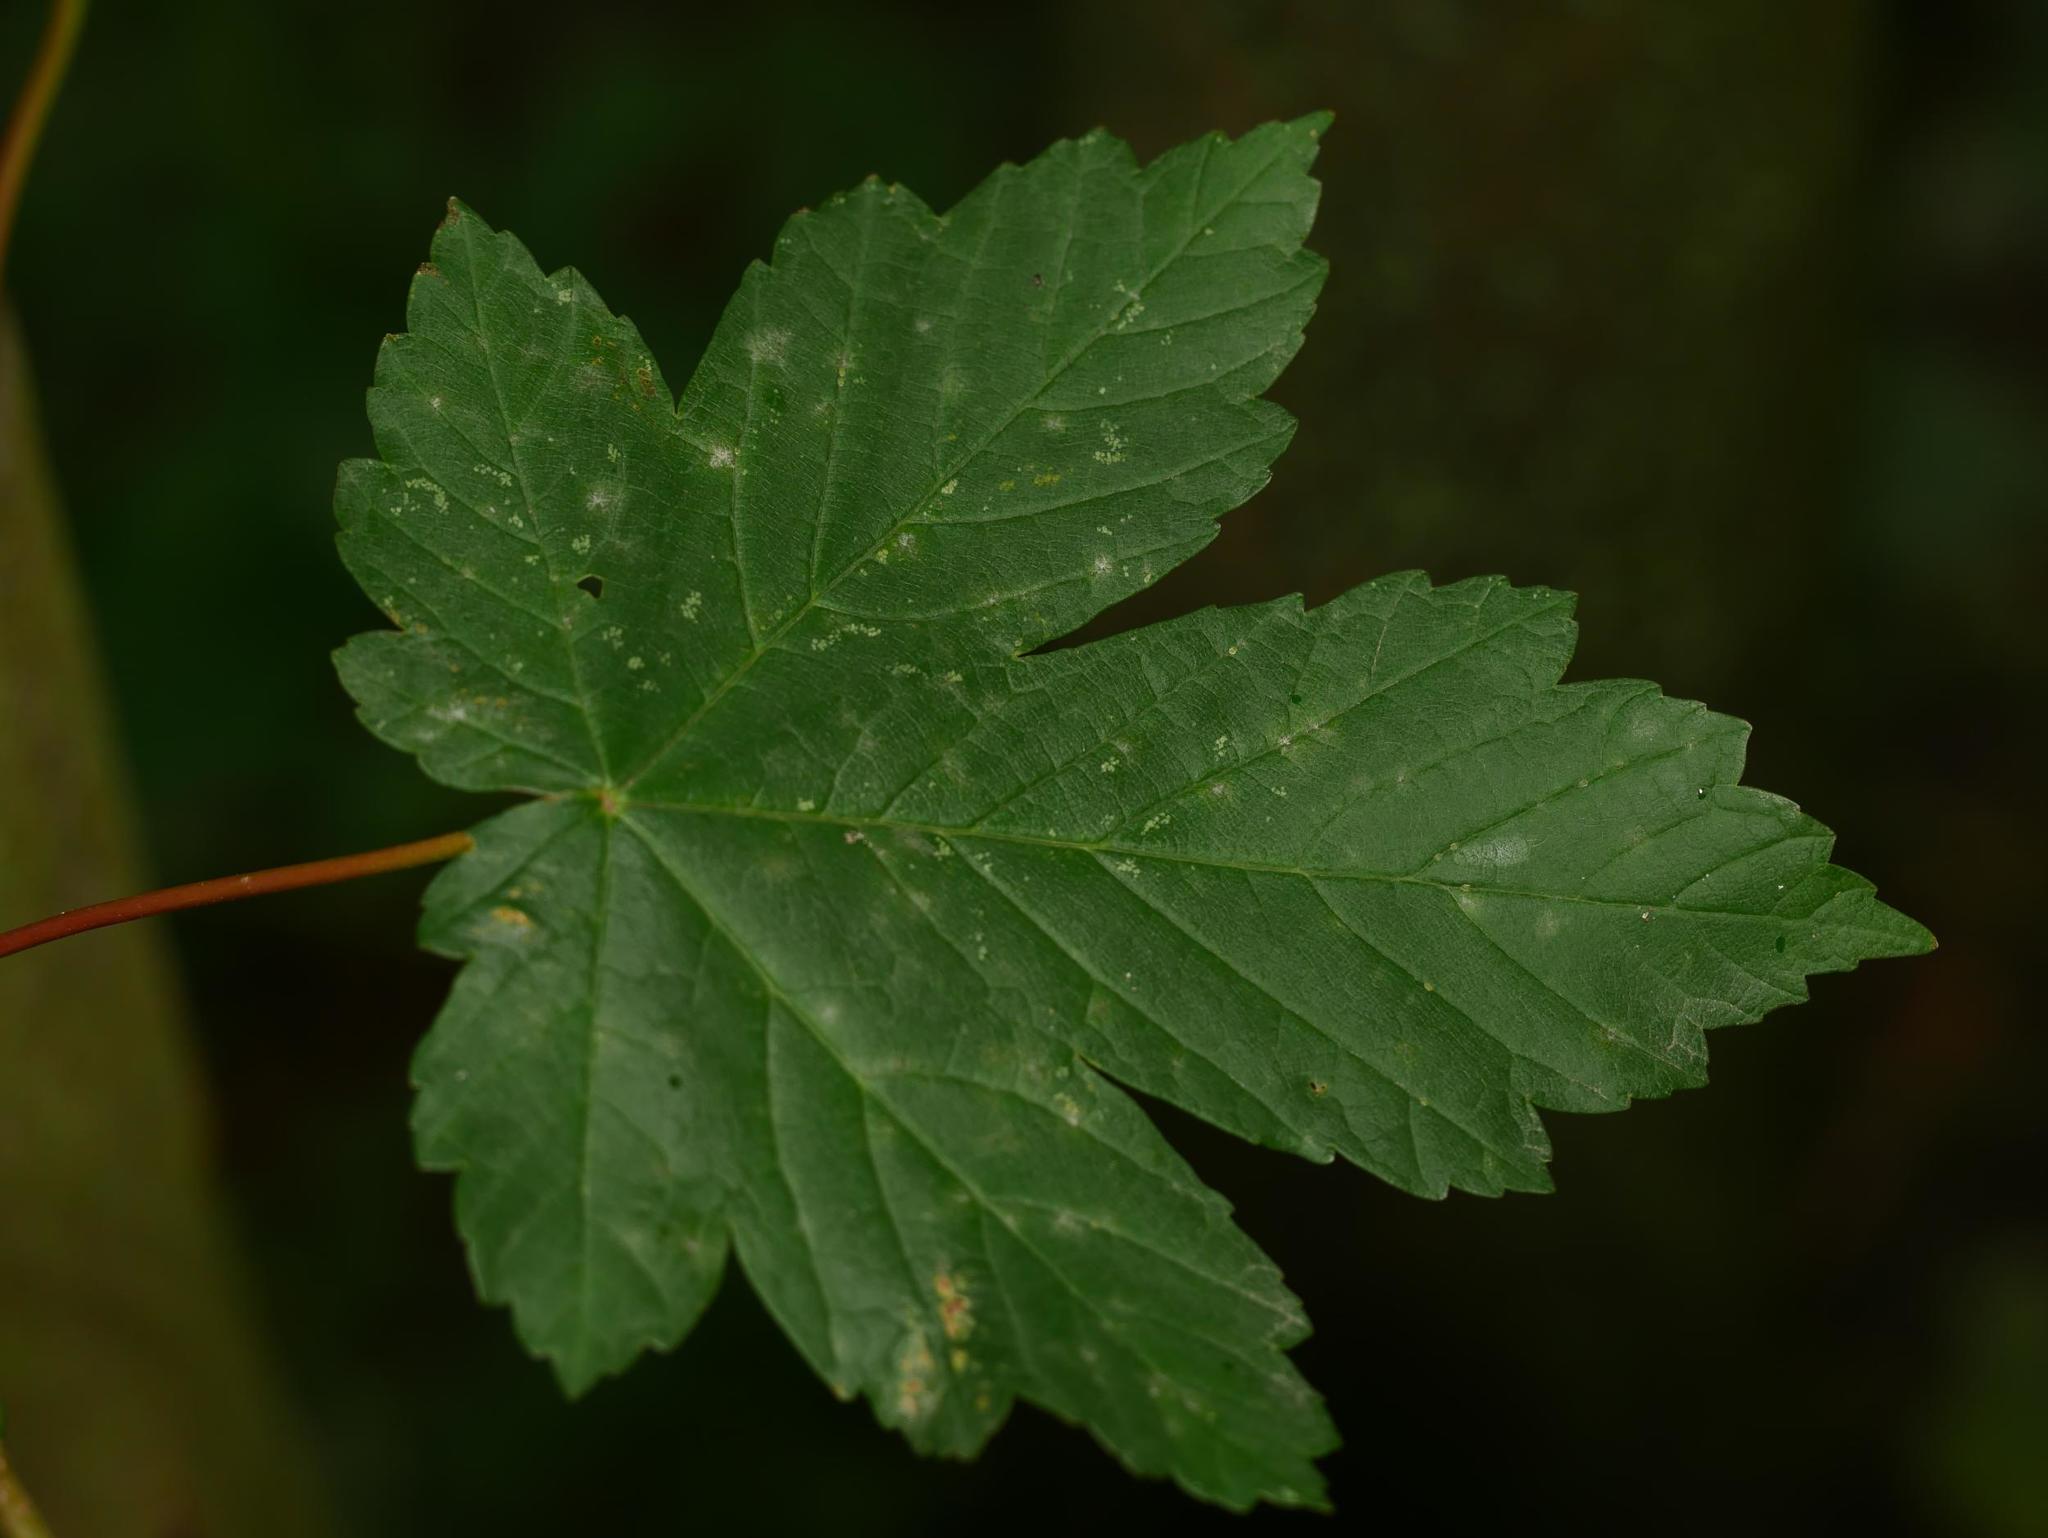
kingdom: Plantae
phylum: Tracheophyta
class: Magnoliopsida
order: Sapindales
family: Sapindaceae
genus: Acer
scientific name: Acer pseudoplatanus
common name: Sycamore
